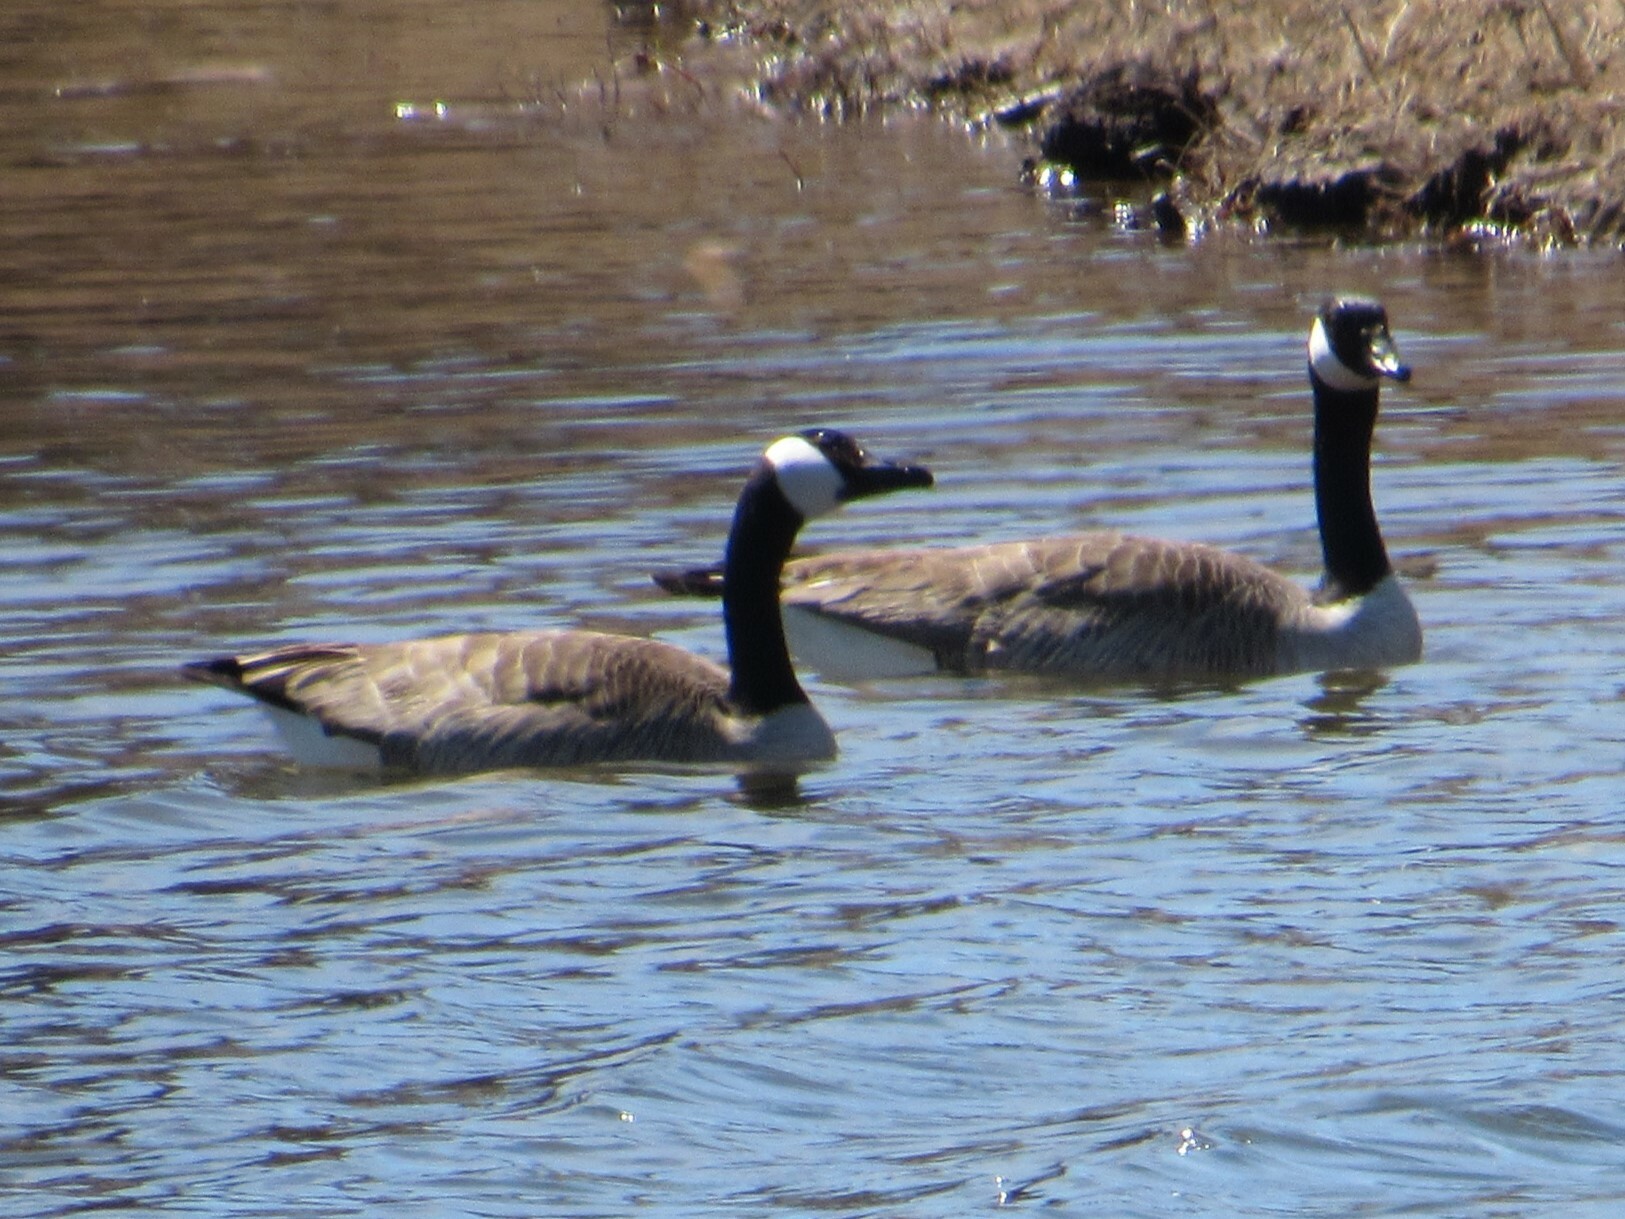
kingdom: Animalia
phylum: Chordata
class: Aves
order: Anseriformes
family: Anatidae
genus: Branta
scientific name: Branta canadensis
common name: Canada goose
